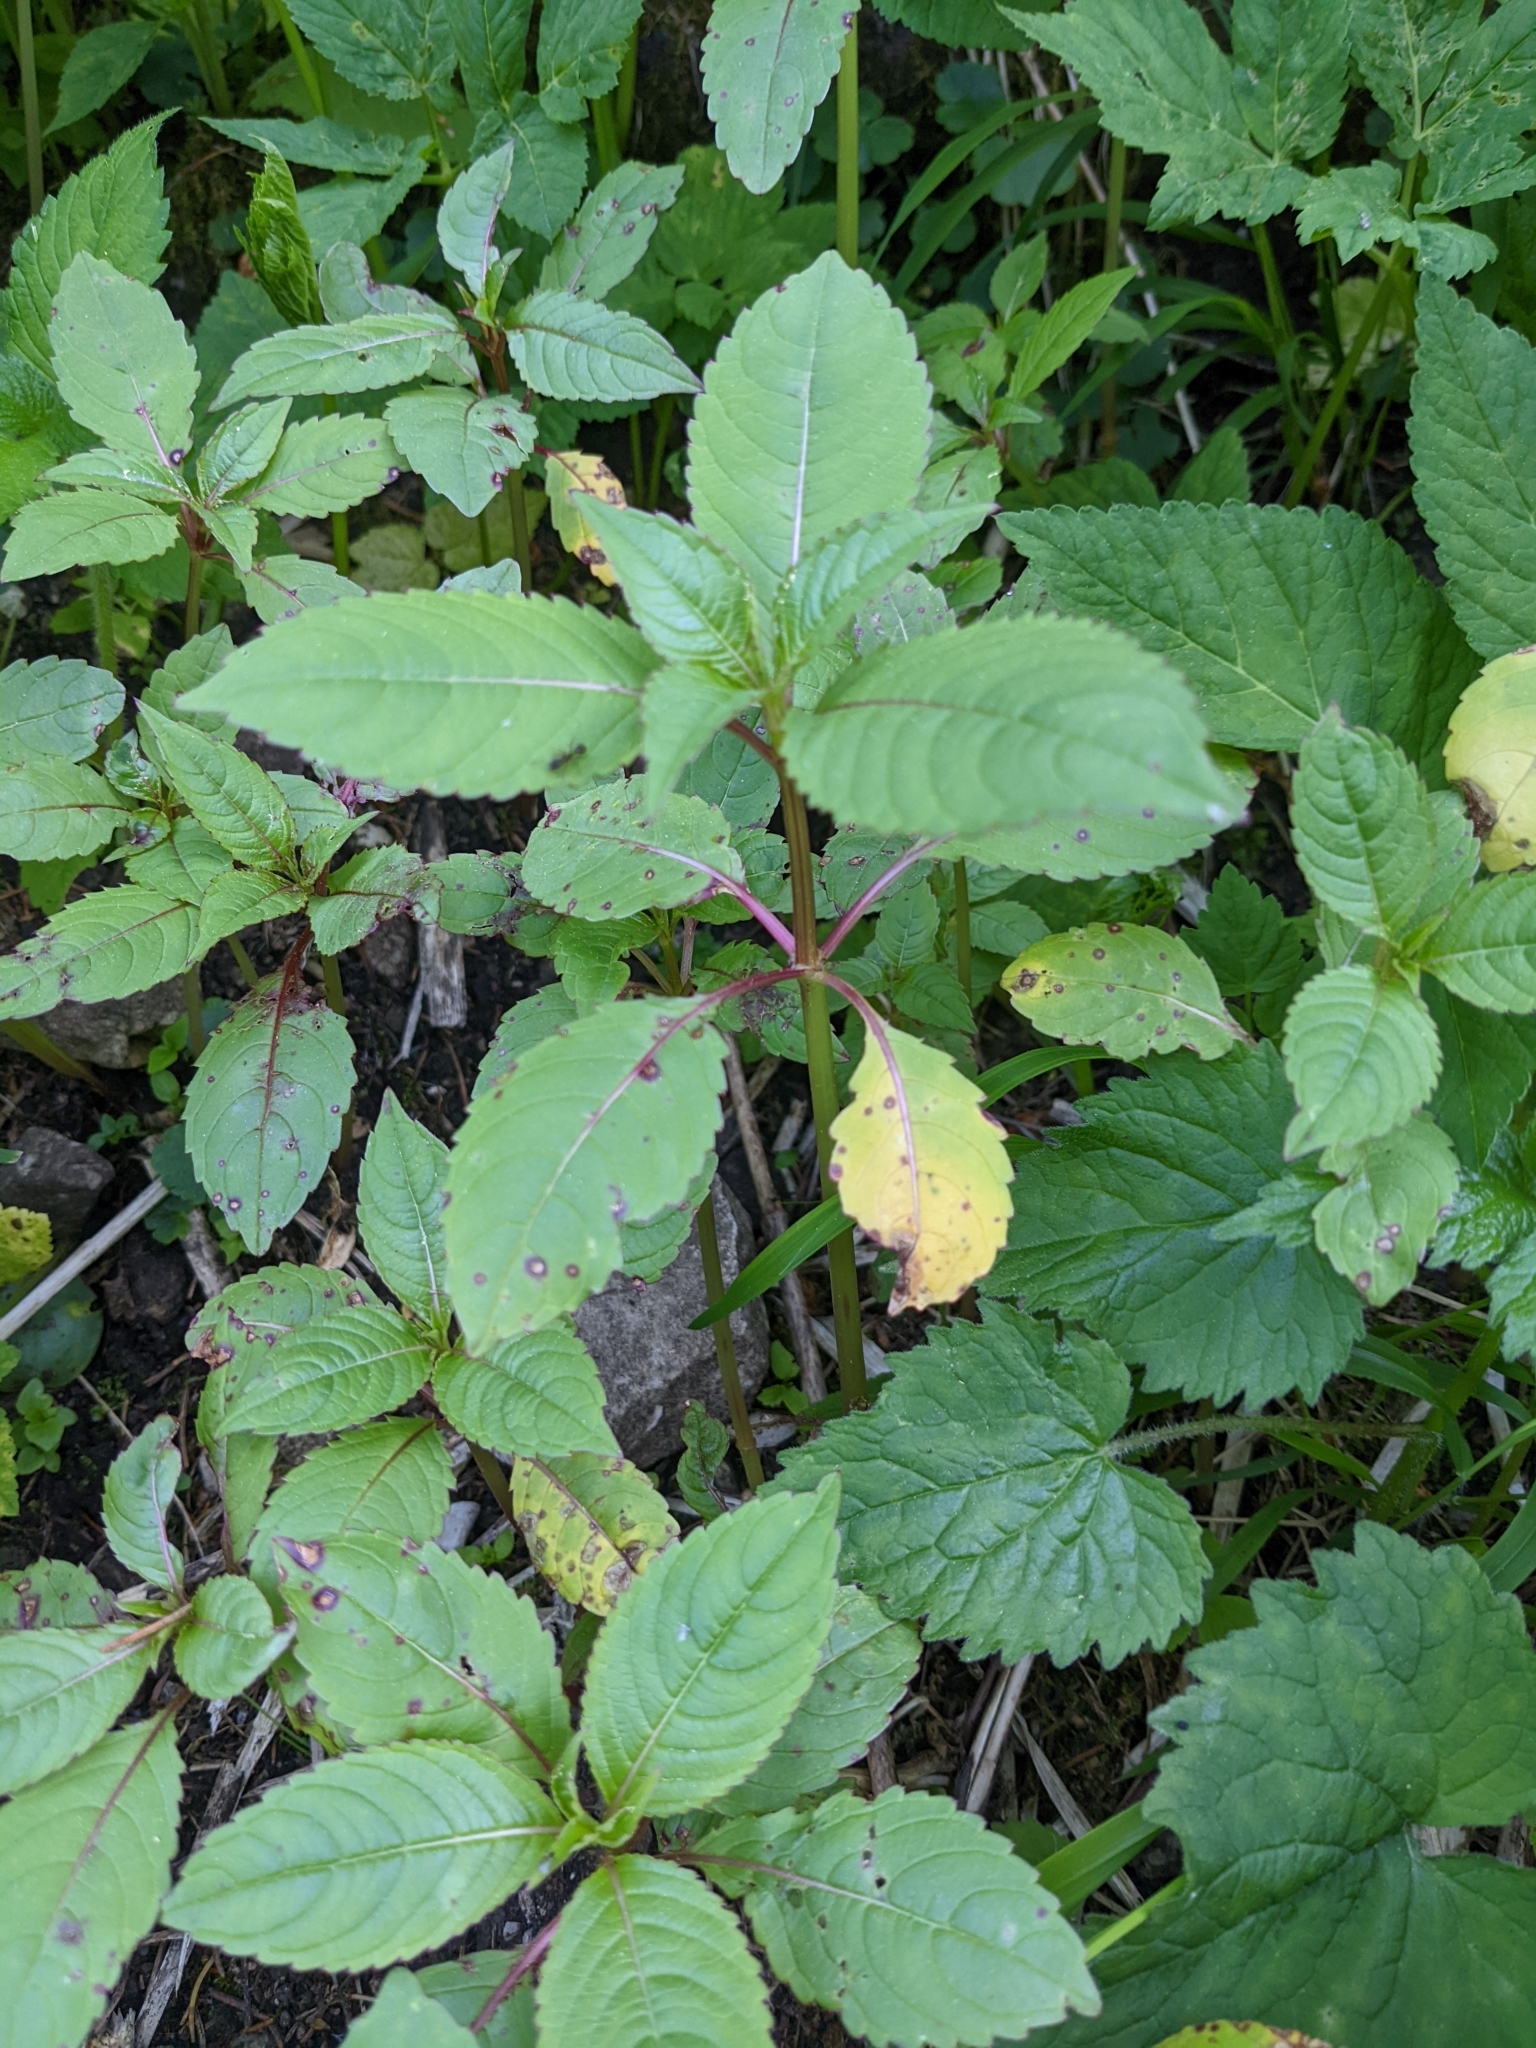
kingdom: Plantae
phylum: Tracheophyta
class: Magnoliopsida
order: Ericales
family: Balsaminaceae
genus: Impatiens
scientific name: Impatiens glandulifera
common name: Himalayan balsam
